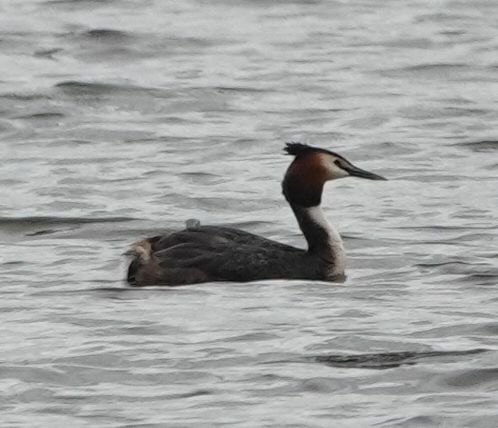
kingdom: Animalia
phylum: Chordata
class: Aves
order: Podicipediformes
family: Podicipedidae
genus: Podiceps
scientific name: Podiceps cristatus
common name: Great crested grebe
